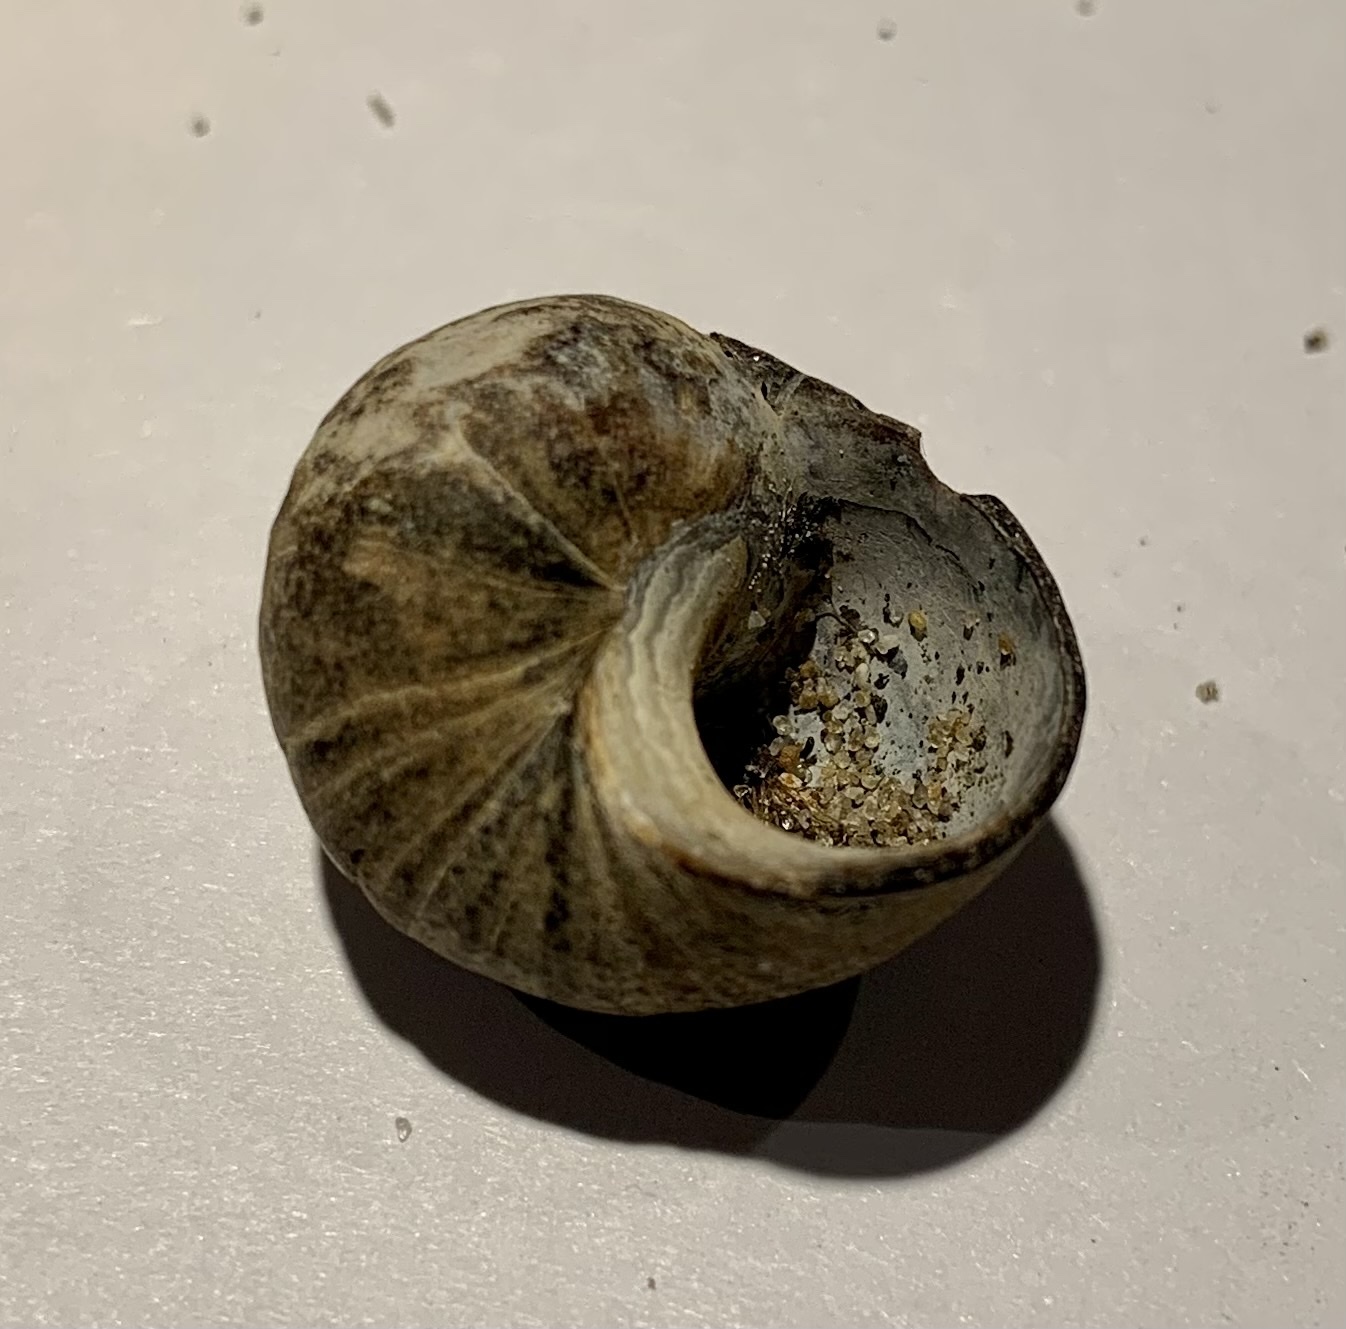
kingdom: Animalia
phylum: Mollusca
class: Gastropoda
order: Littorinimorpha
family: Littorinidae
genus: Littorina
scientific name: Littorina littorea
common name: Common periwinkle
